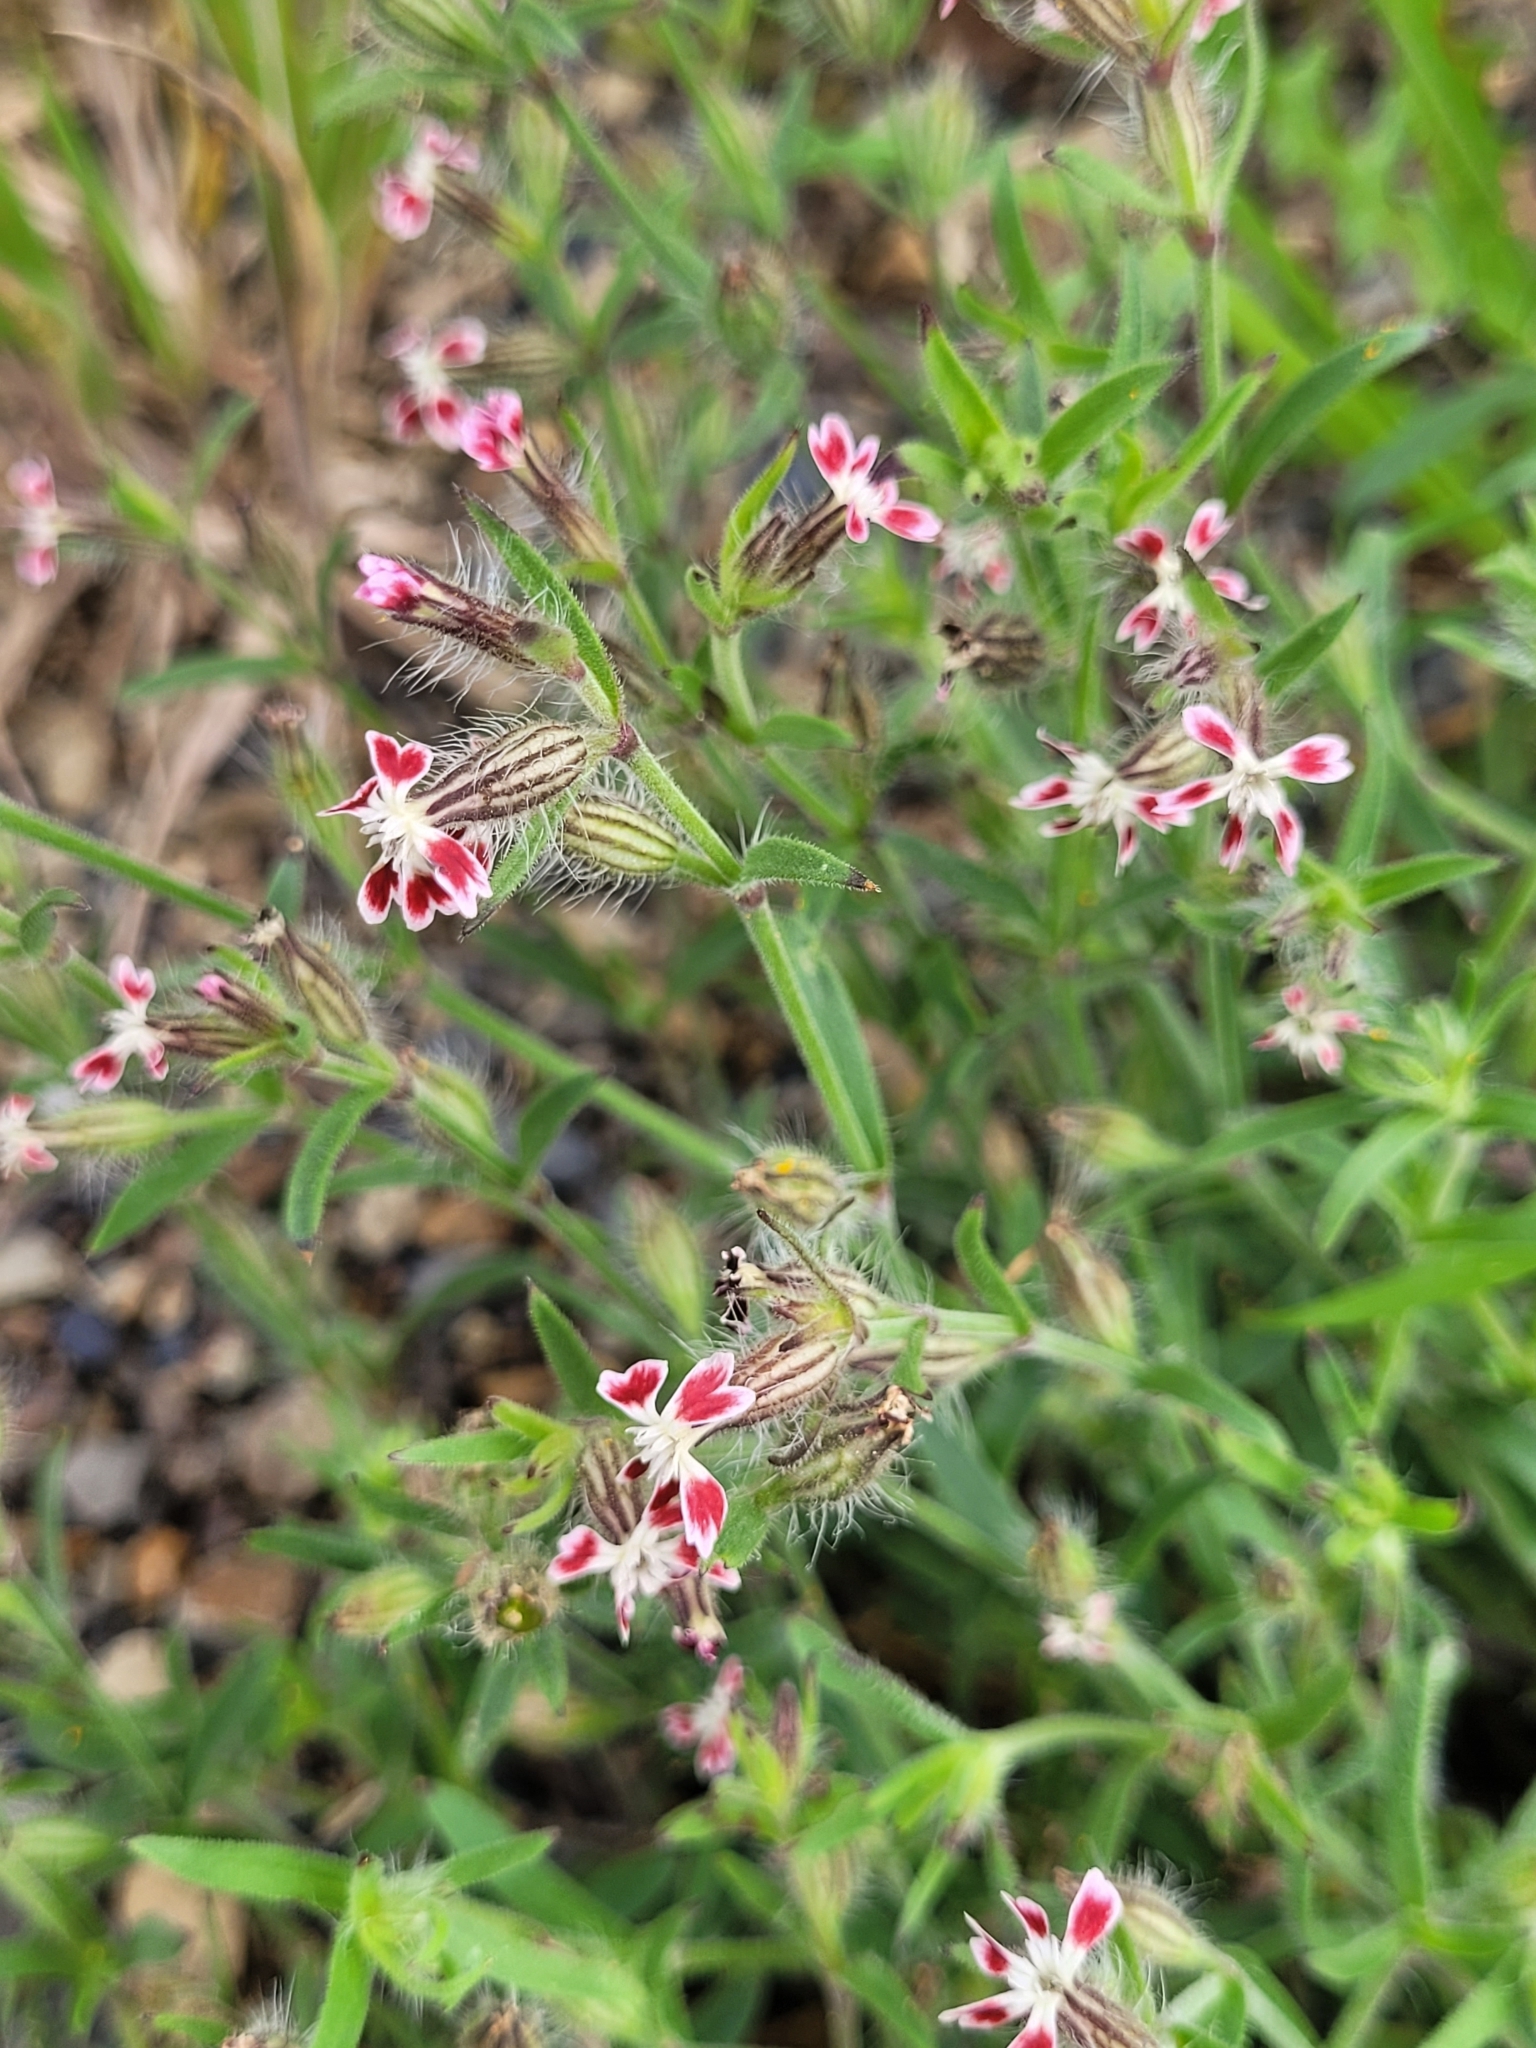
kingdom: Plantae
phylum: Tracheophyta
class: Magnoliopsida
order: Caryophyllales
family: Caryophyllaceae
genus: Silene
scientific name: Silene gallica
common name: Small-flowered catchfly
